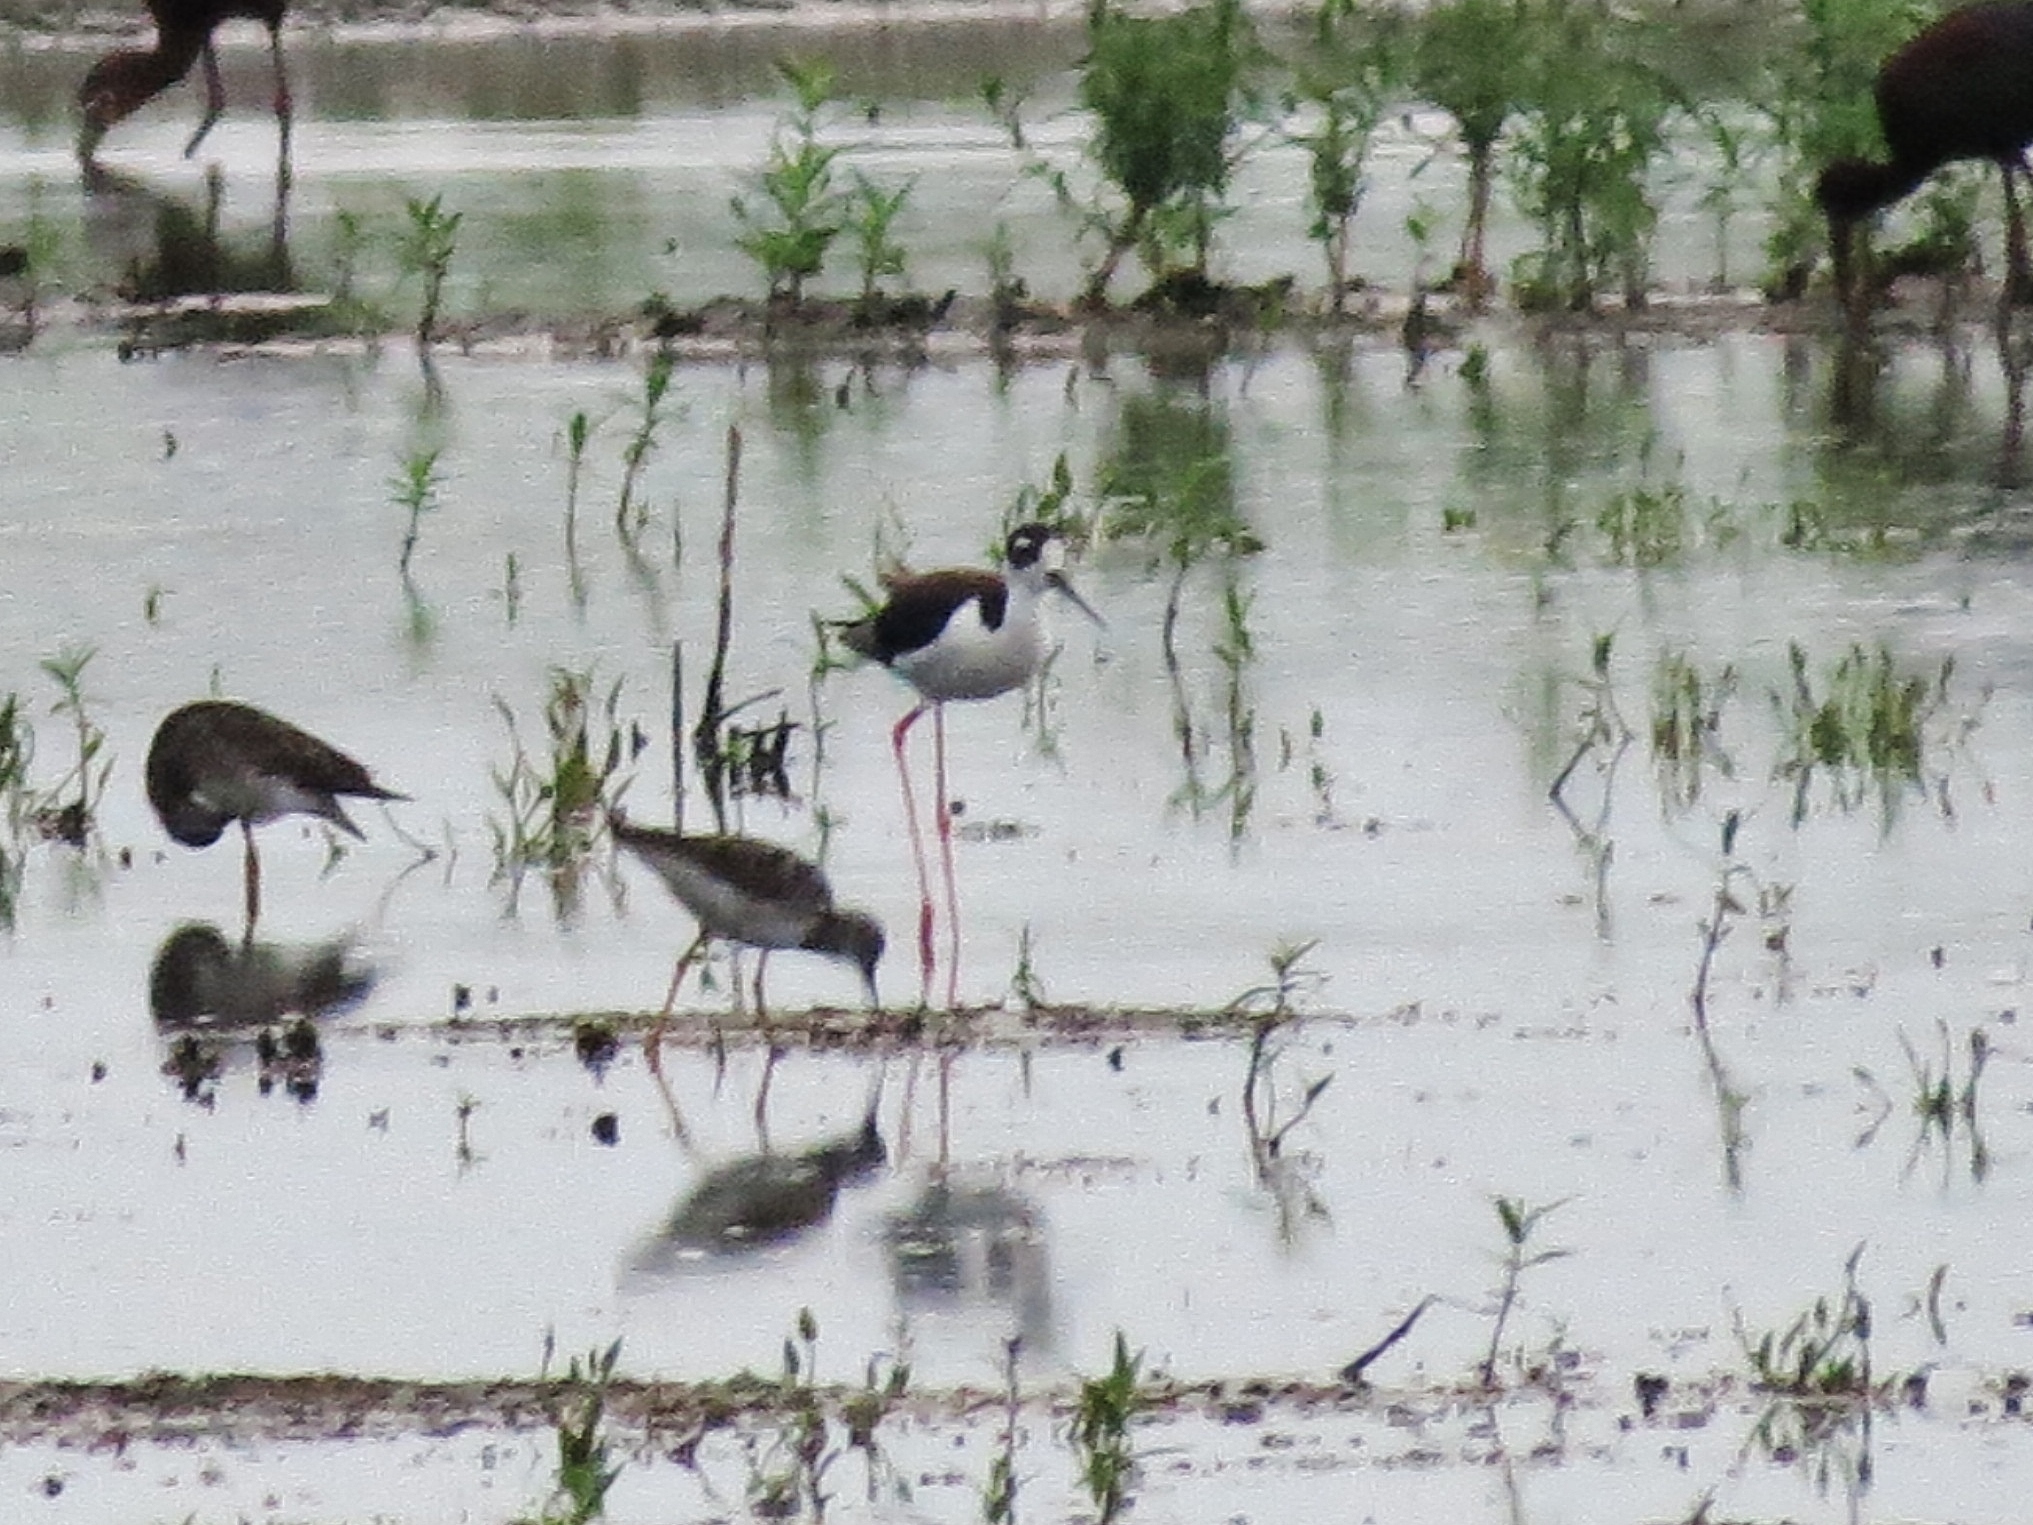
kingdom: Animalia
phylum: Chordata
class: Aves
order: Charadriiformes
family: Recurvirostridae
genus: Himantopus
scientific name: Himantopus mexicanus
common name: Black-necked stilt
